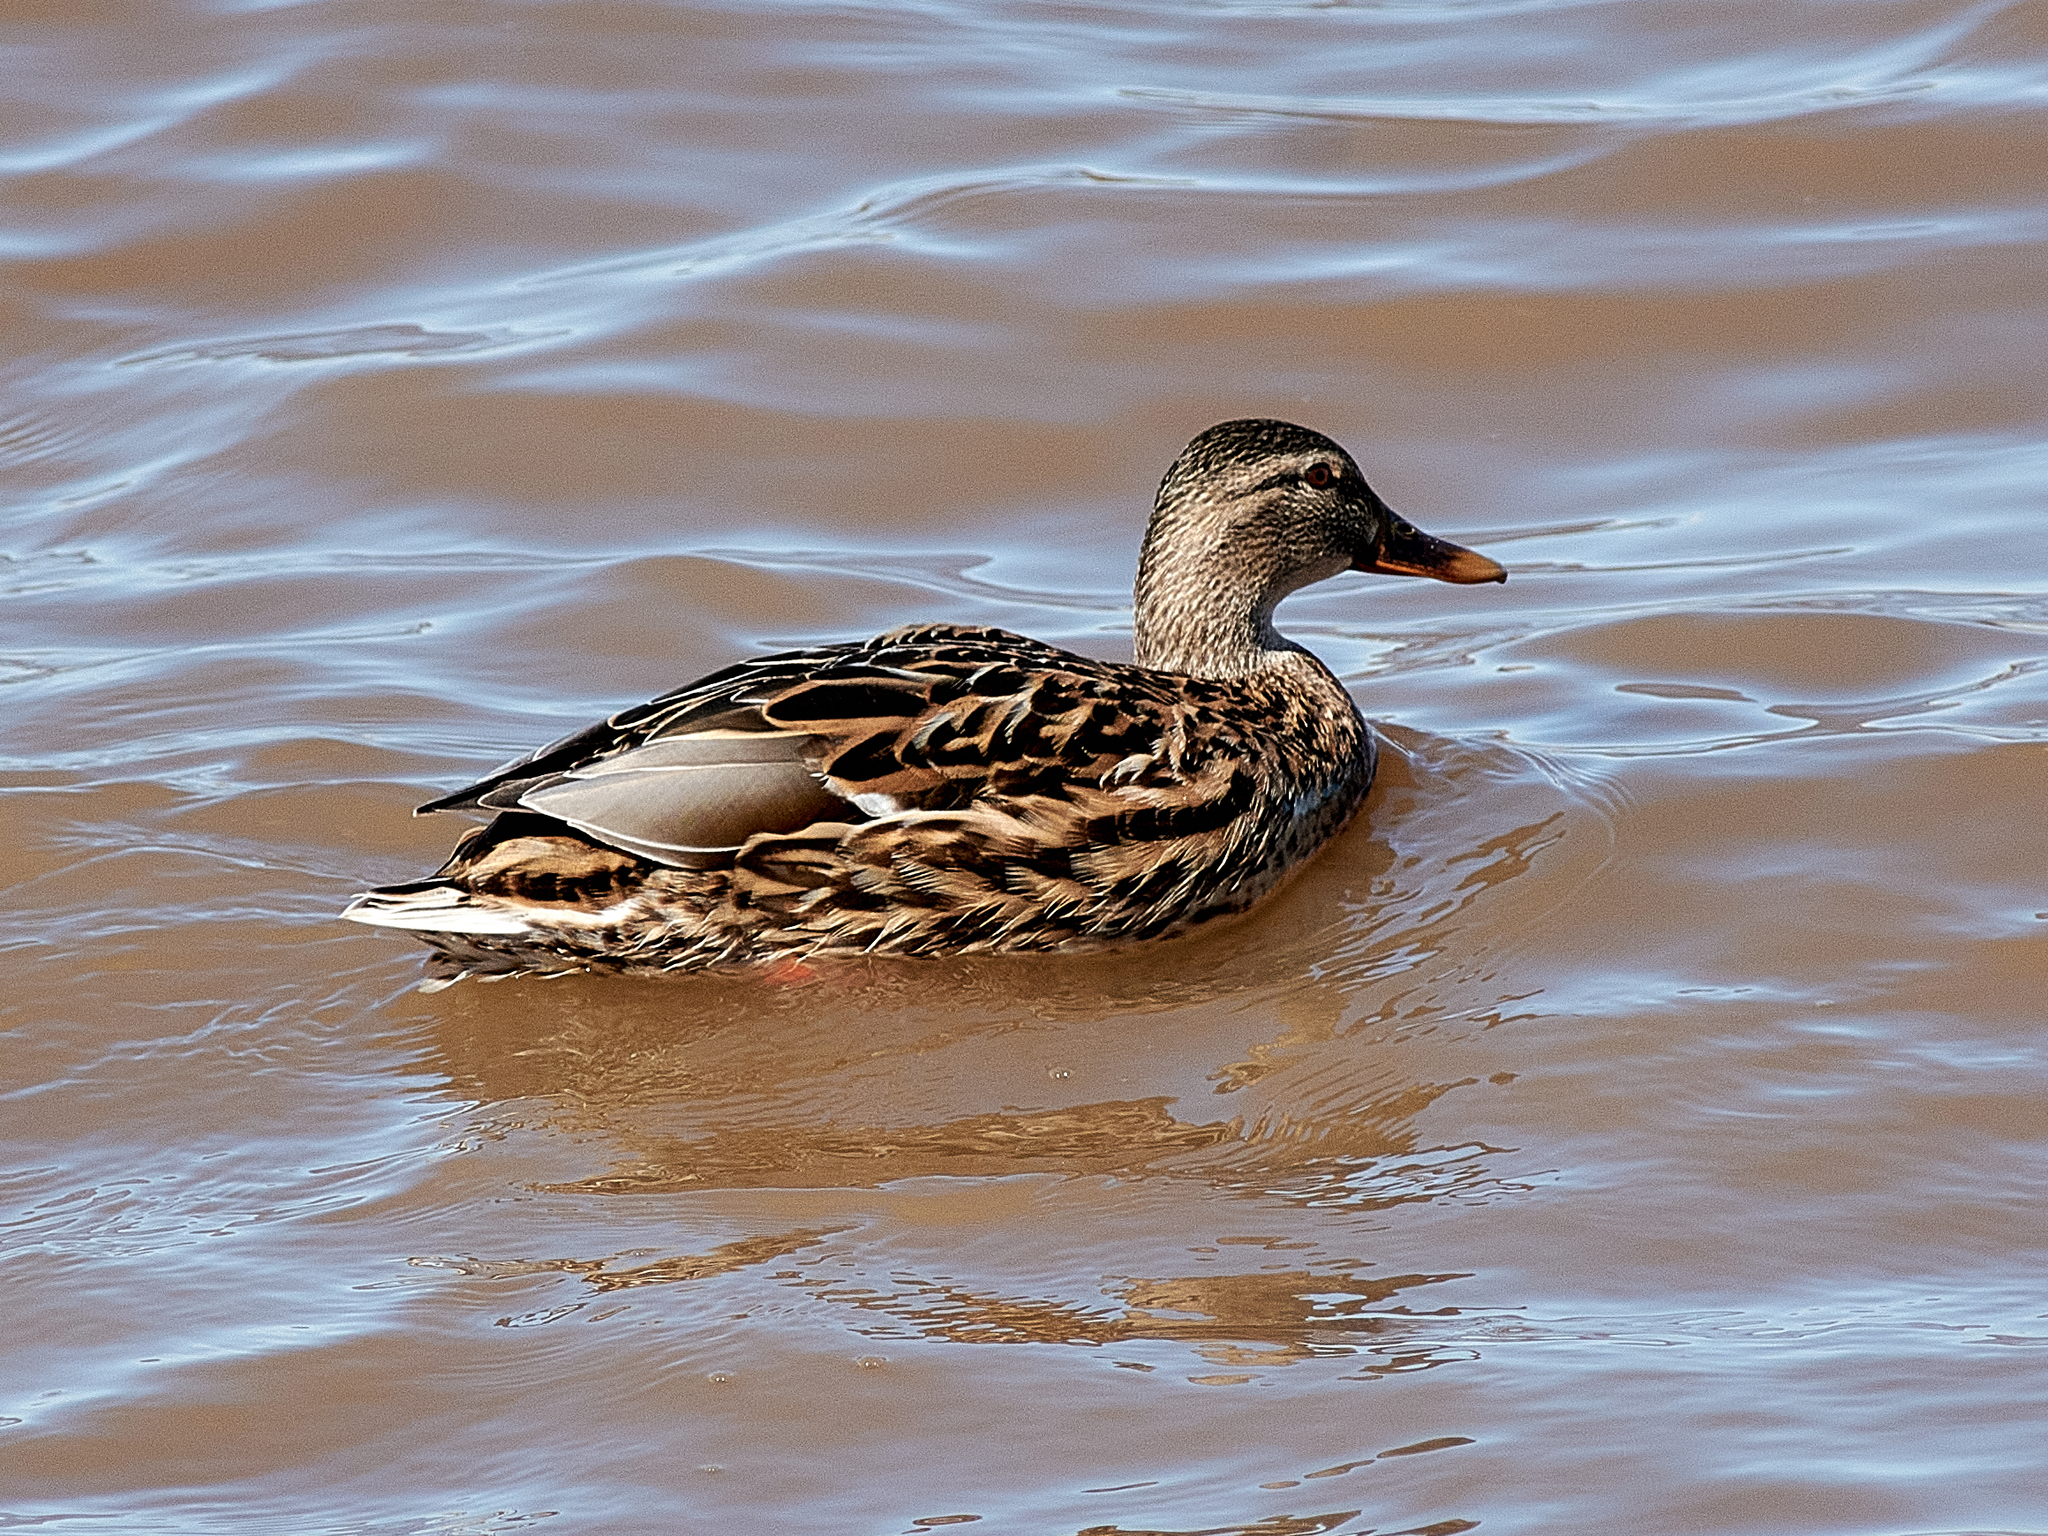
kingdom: Animalia
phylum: Chordata
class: Aves
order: Anseriformes
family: Anatidae
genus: Anas
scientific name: Anas platyrhynchos
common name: Mallard
